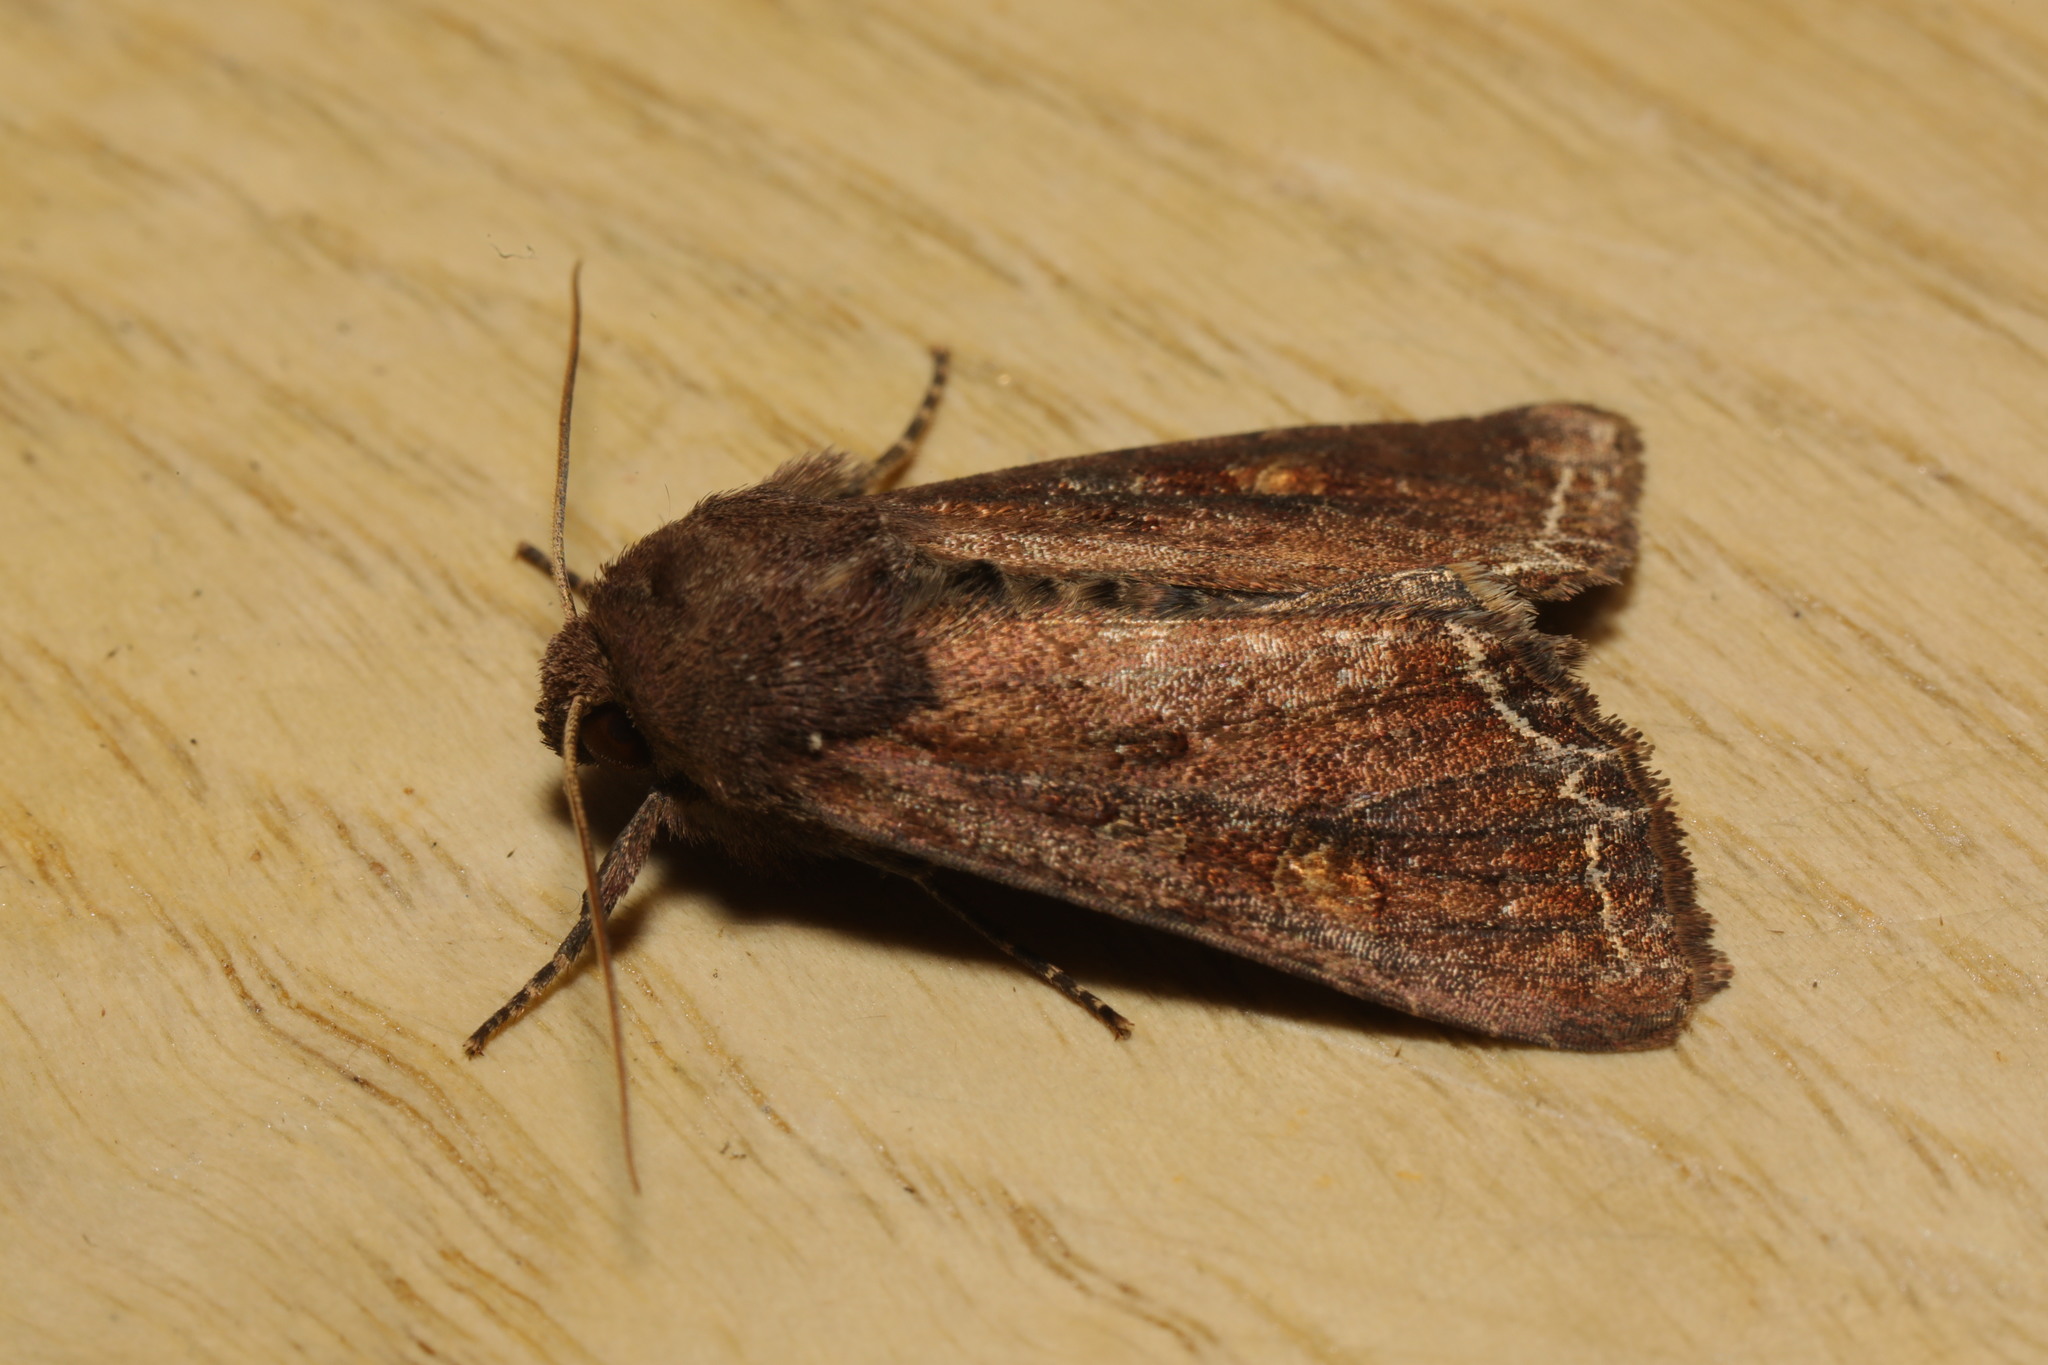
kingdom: Animalia
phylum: Arthropoda
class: Insecta
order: Lepidoptera
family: Noctuidae
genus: Lacanobia
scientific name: Lacanobia oleracea
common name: Bright-line brown-eye
